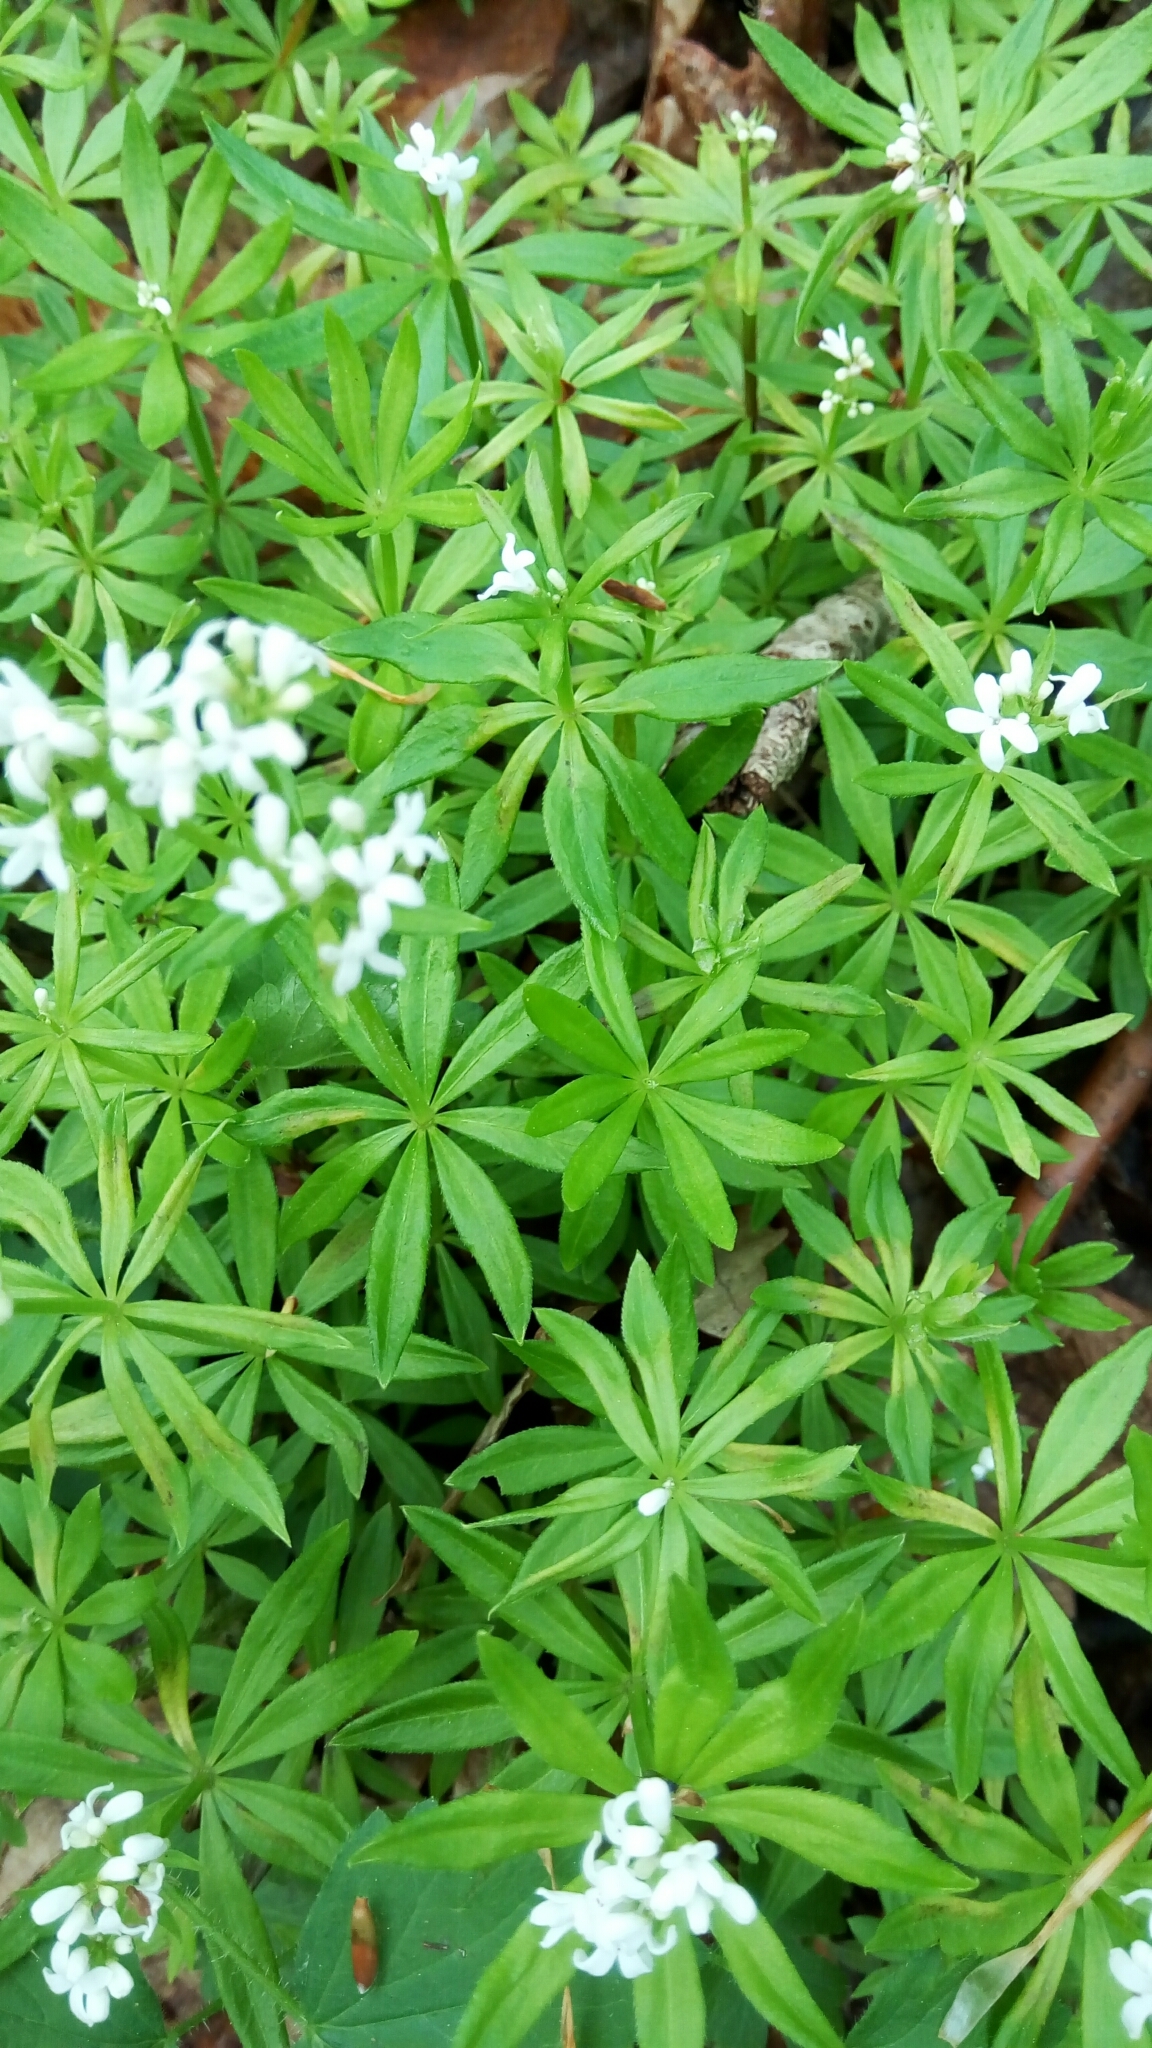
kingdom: Plantae
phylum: Tracheophyta
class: Magnoliopsida
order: Gentianales
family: Rubiaceae
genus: Galium
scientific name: Galium odoratum
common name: Sweet woodruff
